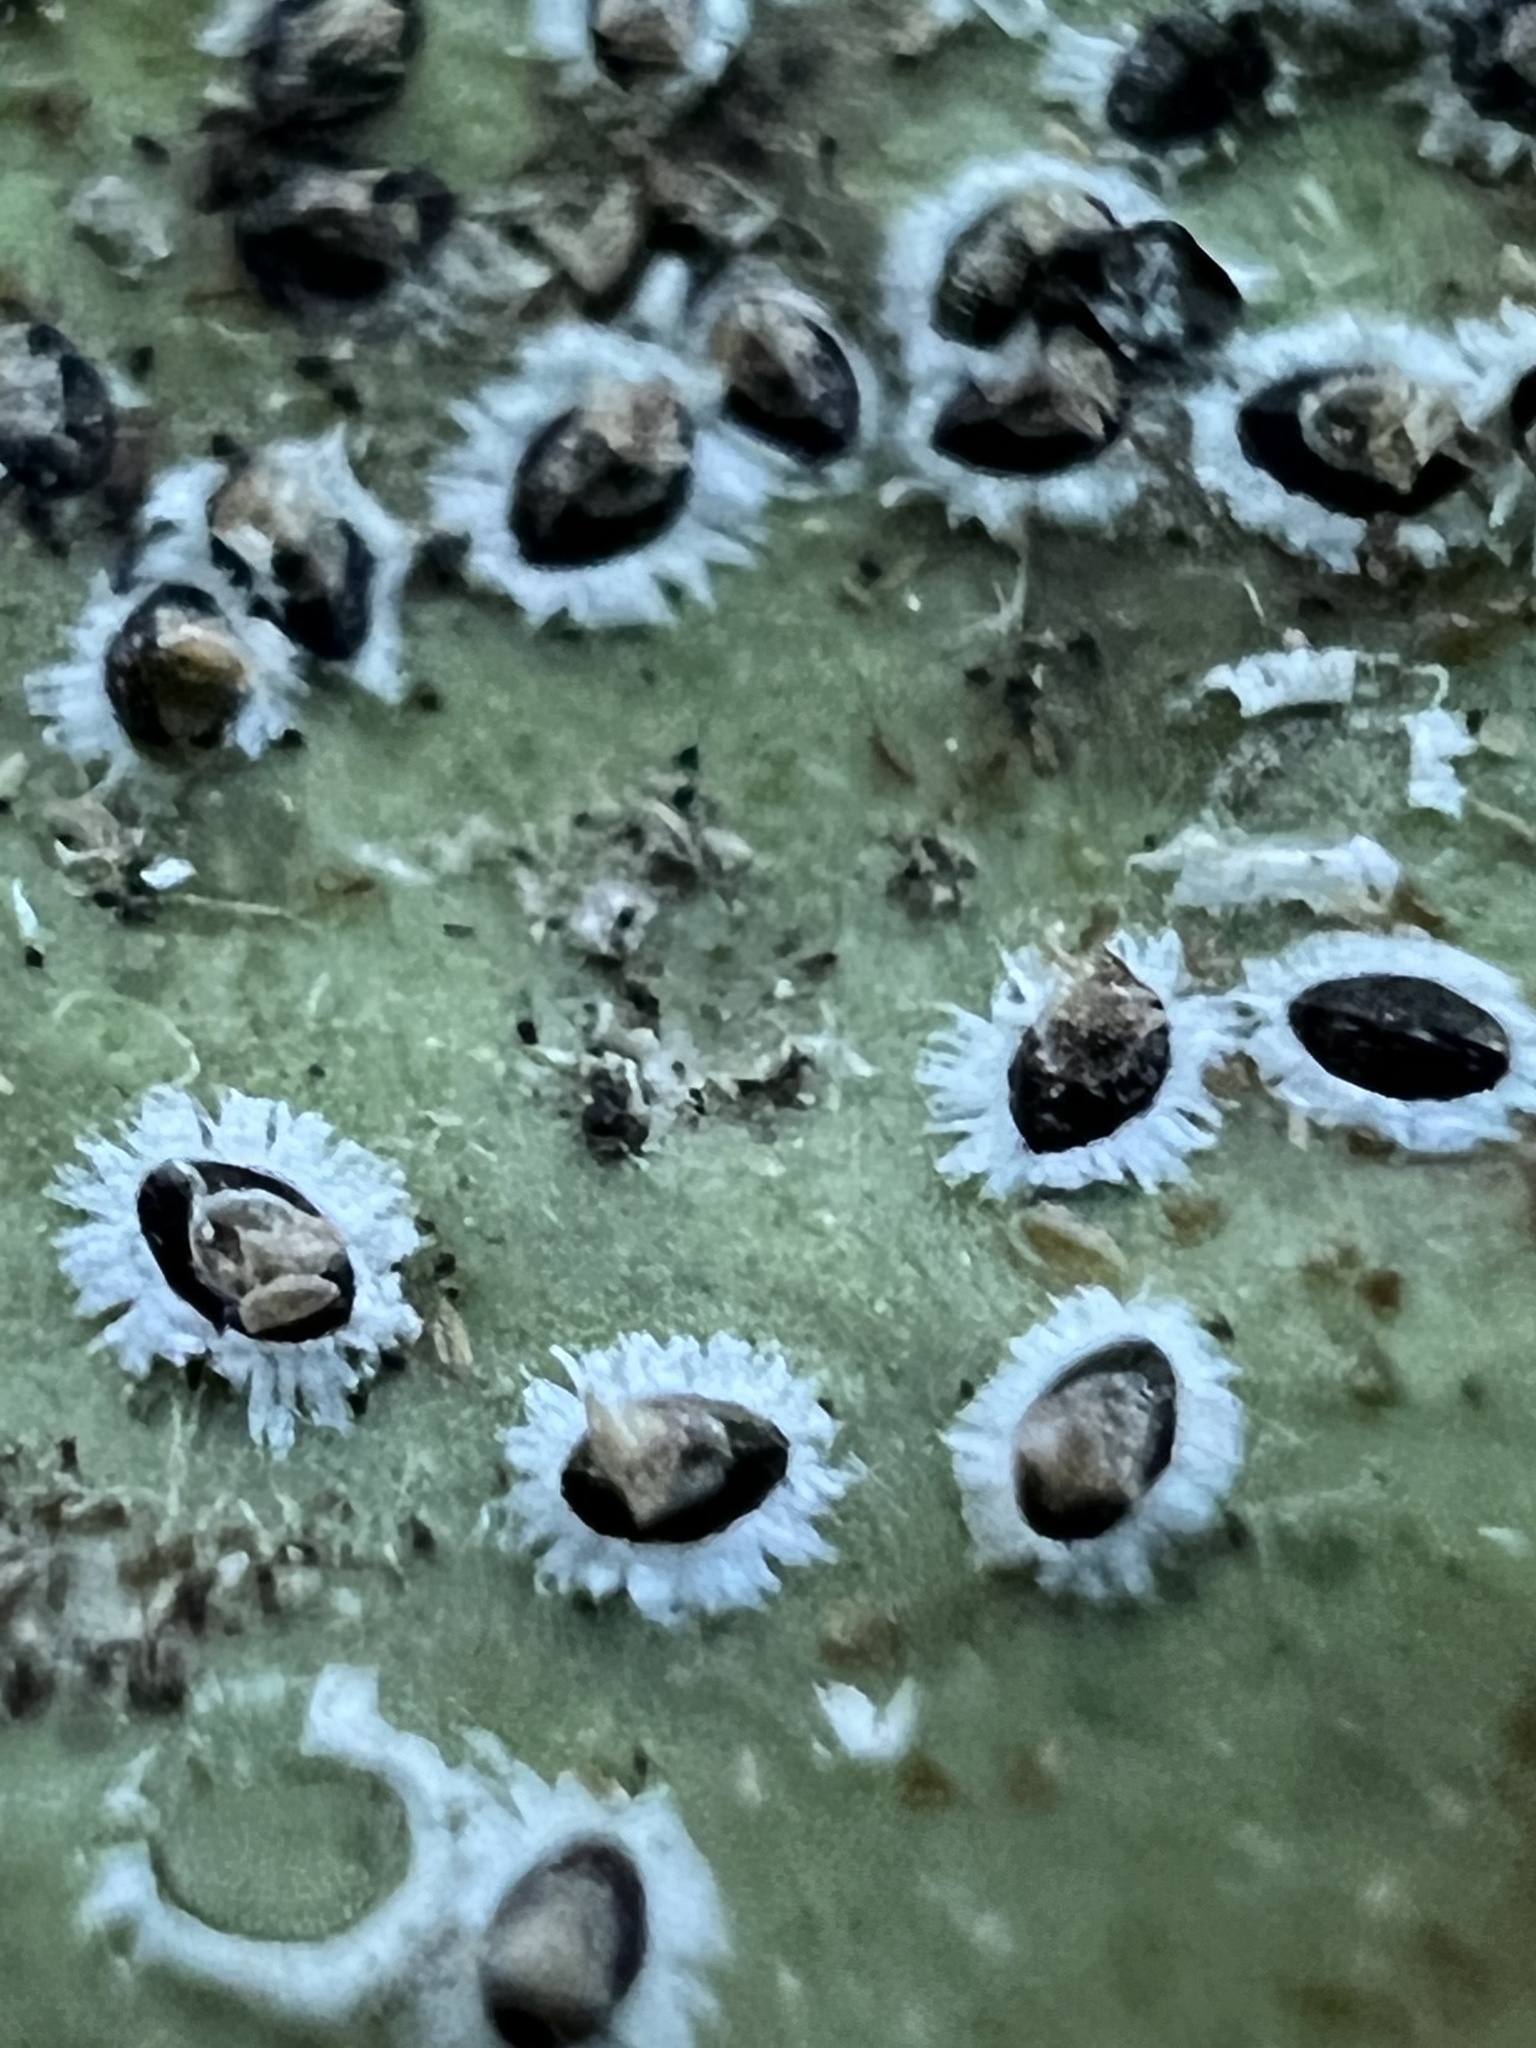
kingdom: Animalia
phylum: Arthropoda
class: Insecta
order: Hemiptera
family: Aleyrodidae
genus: Tetraleurodes
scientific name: Tetraleurodes mori
